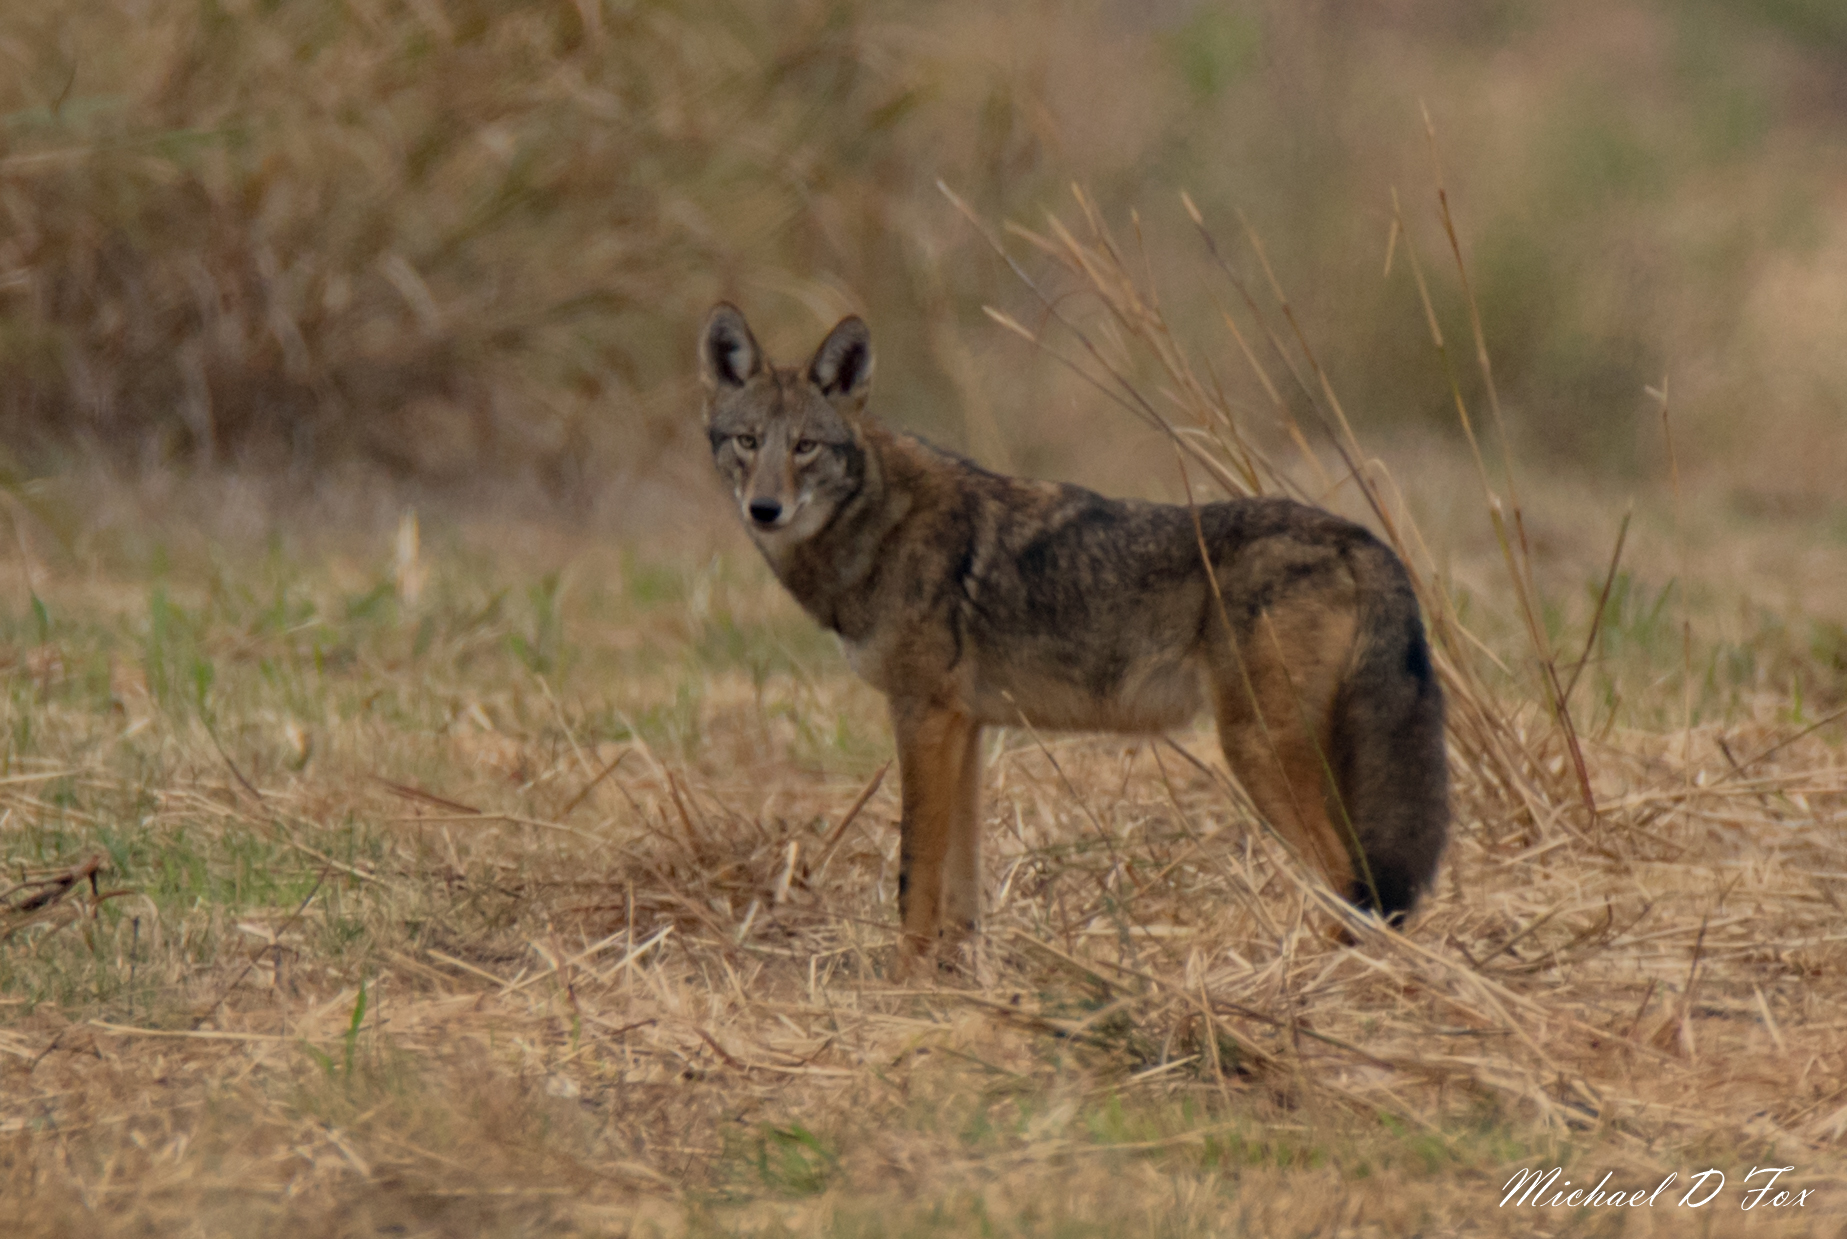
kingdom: Animalia
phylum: Chordata
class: Mammalia
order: Carnivora
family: Canidae
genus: Canis
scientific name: Canis latrans
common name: Coyote
